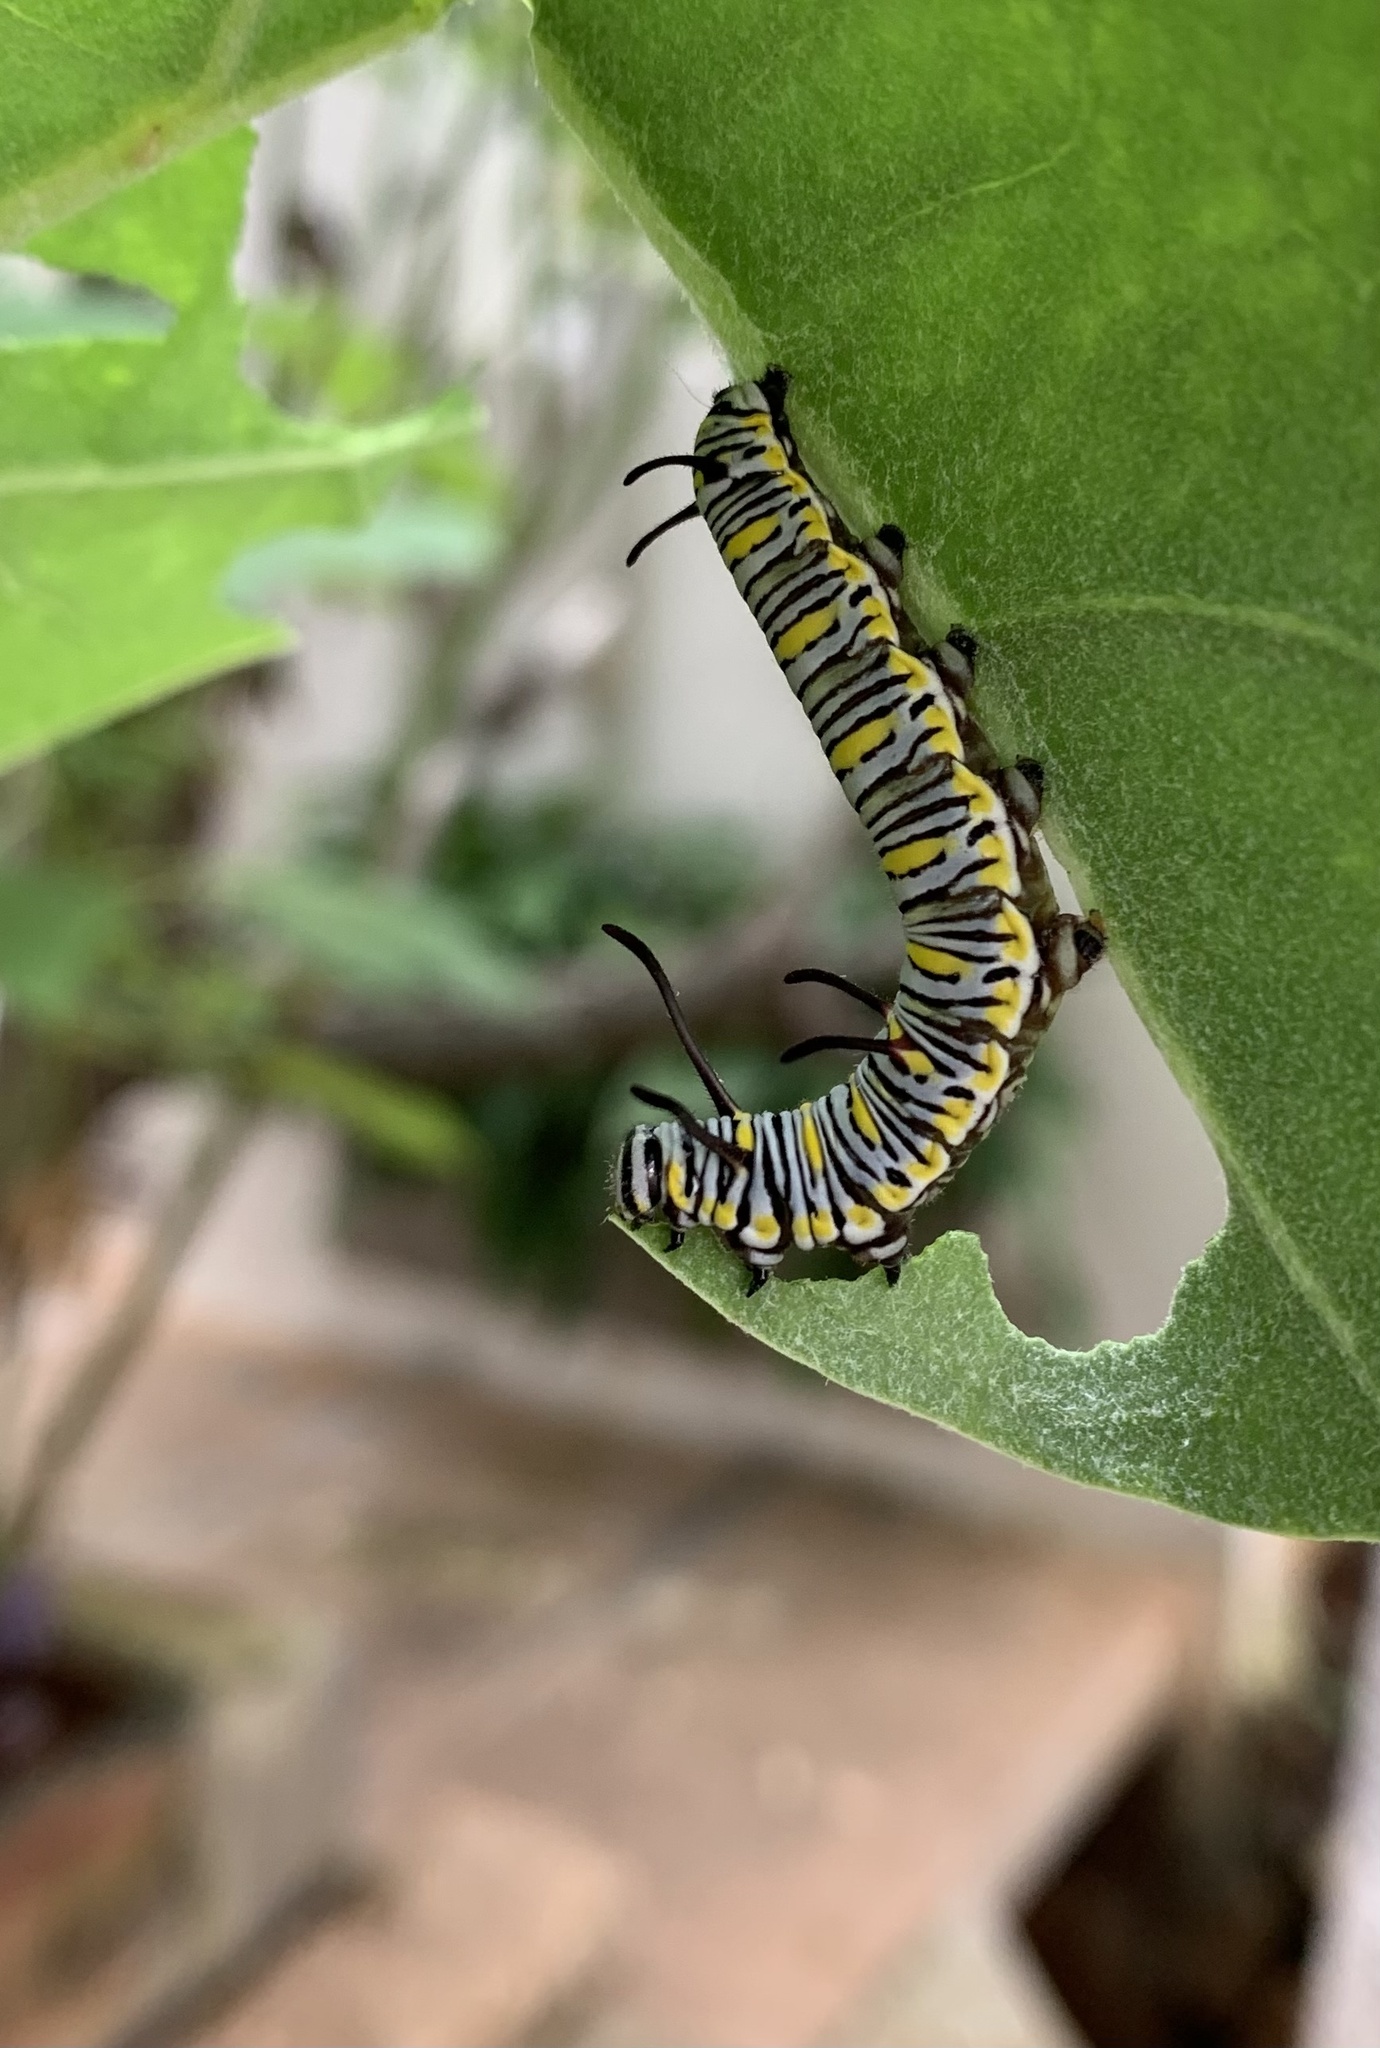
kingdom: Animalia
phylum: Arthropoda
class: Insecta
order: Lepidoptera
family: Nymphalidae
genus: Danaus
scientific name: Danaus chrysippus
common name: Plain tiger
